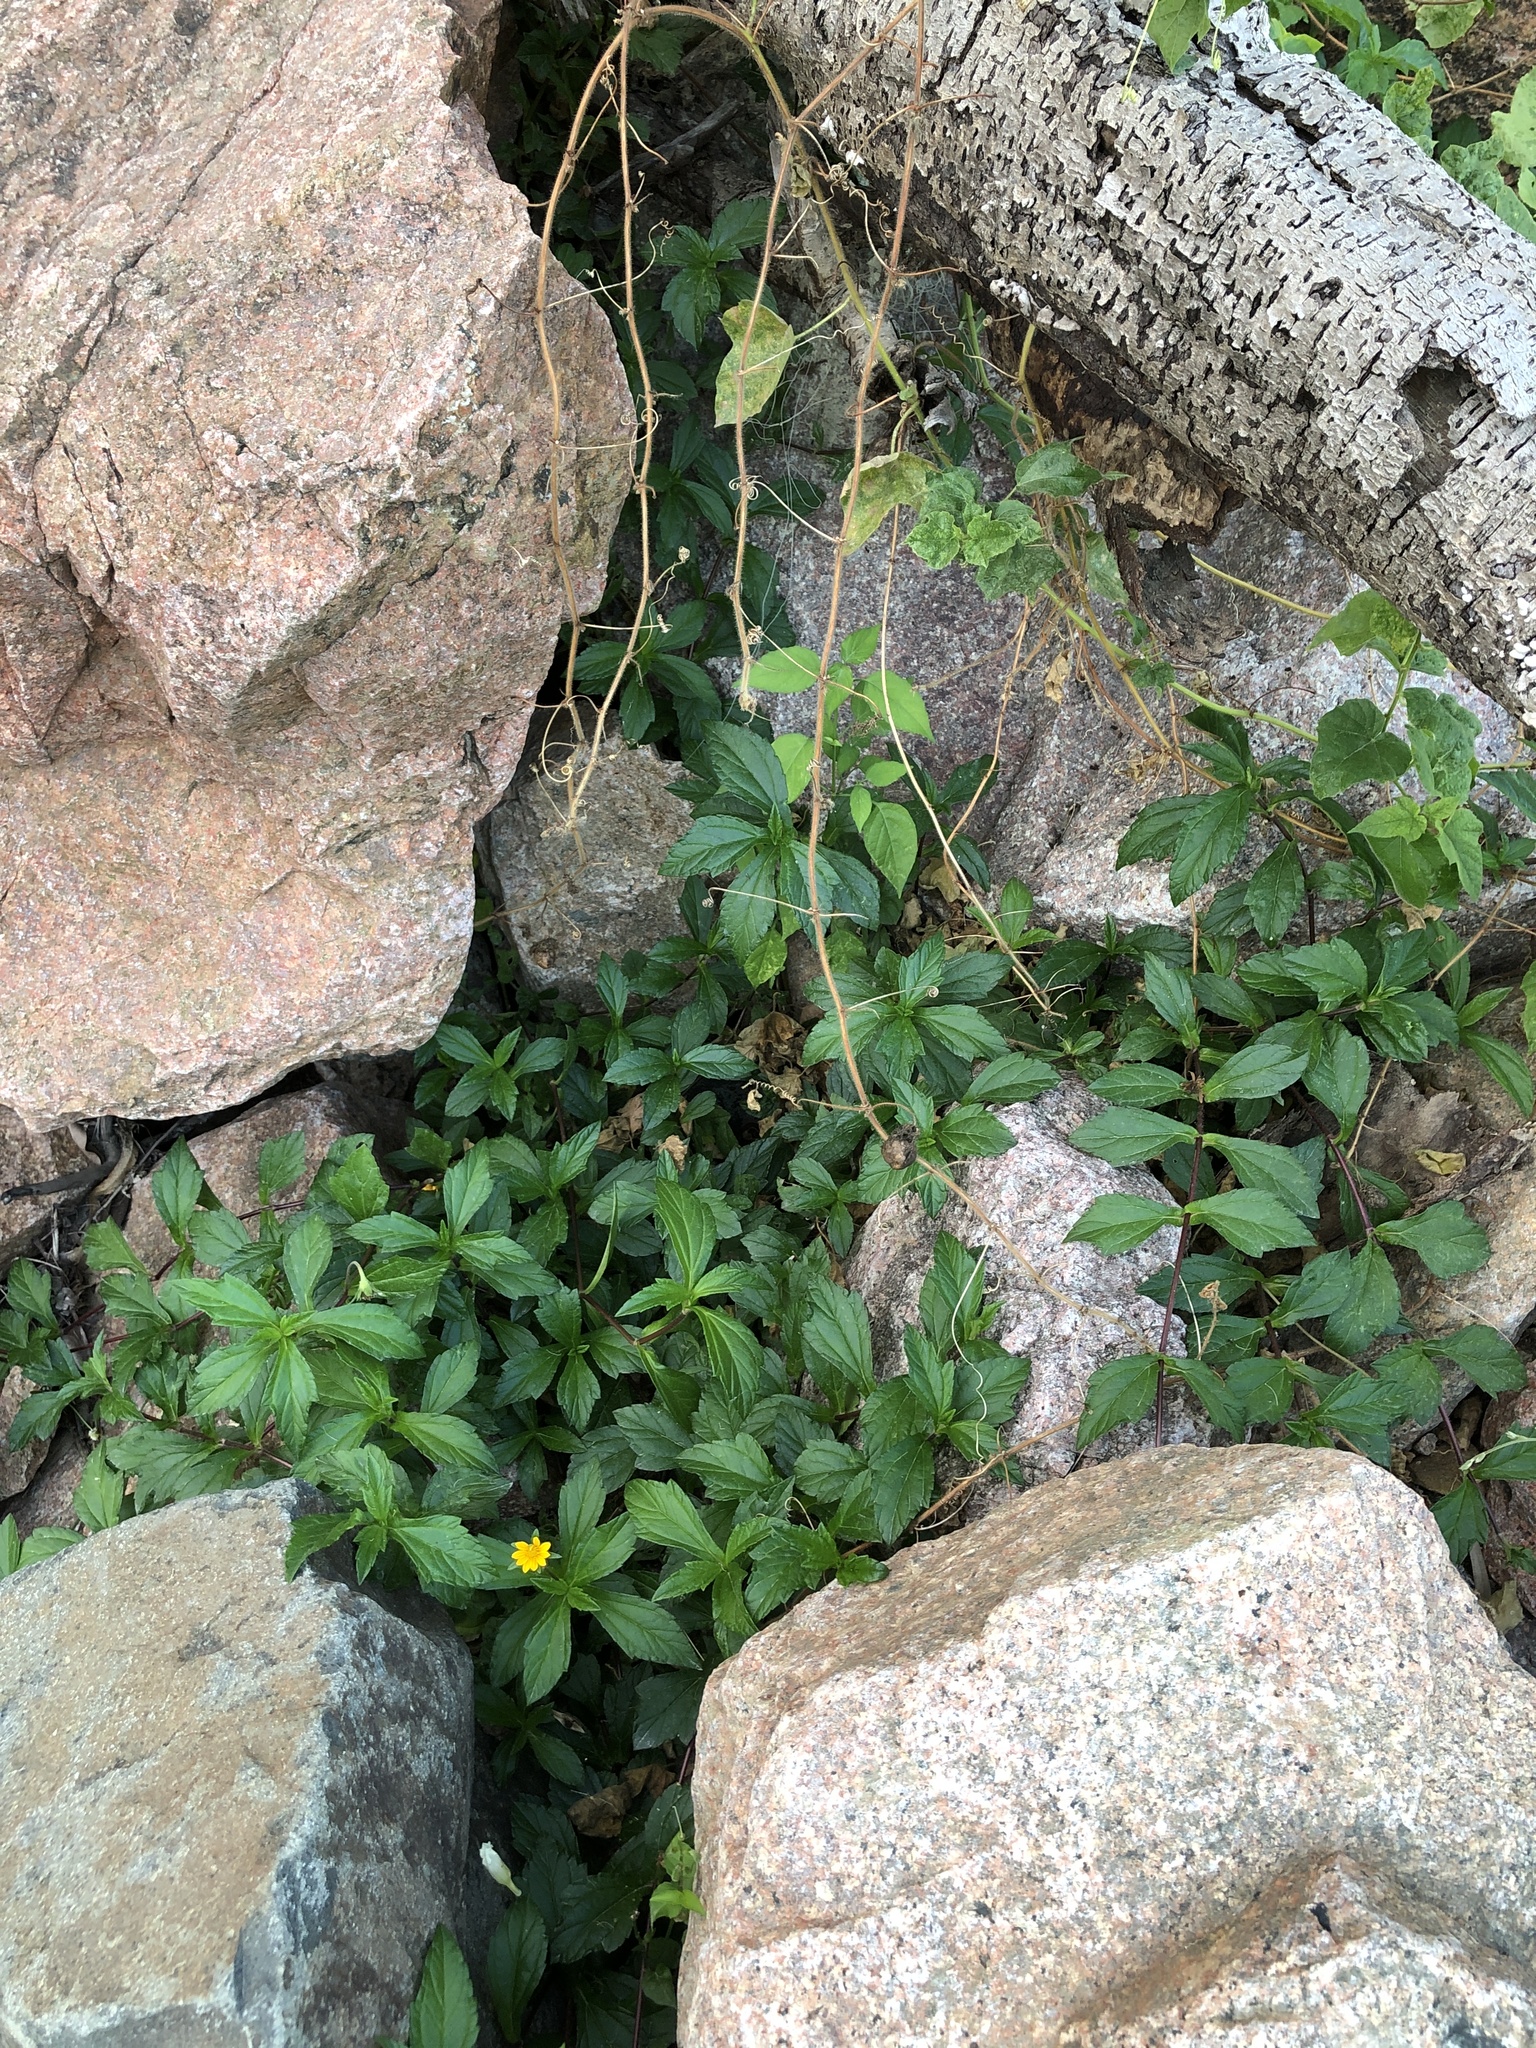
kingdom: Plantae
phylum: Tracheophyta
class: Magnoliopsida
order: Asterales
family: Asteraceae
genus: Sphagneticola
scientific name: Sphagneticola trilobata
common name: Bay biscayne creeping-oxeye
